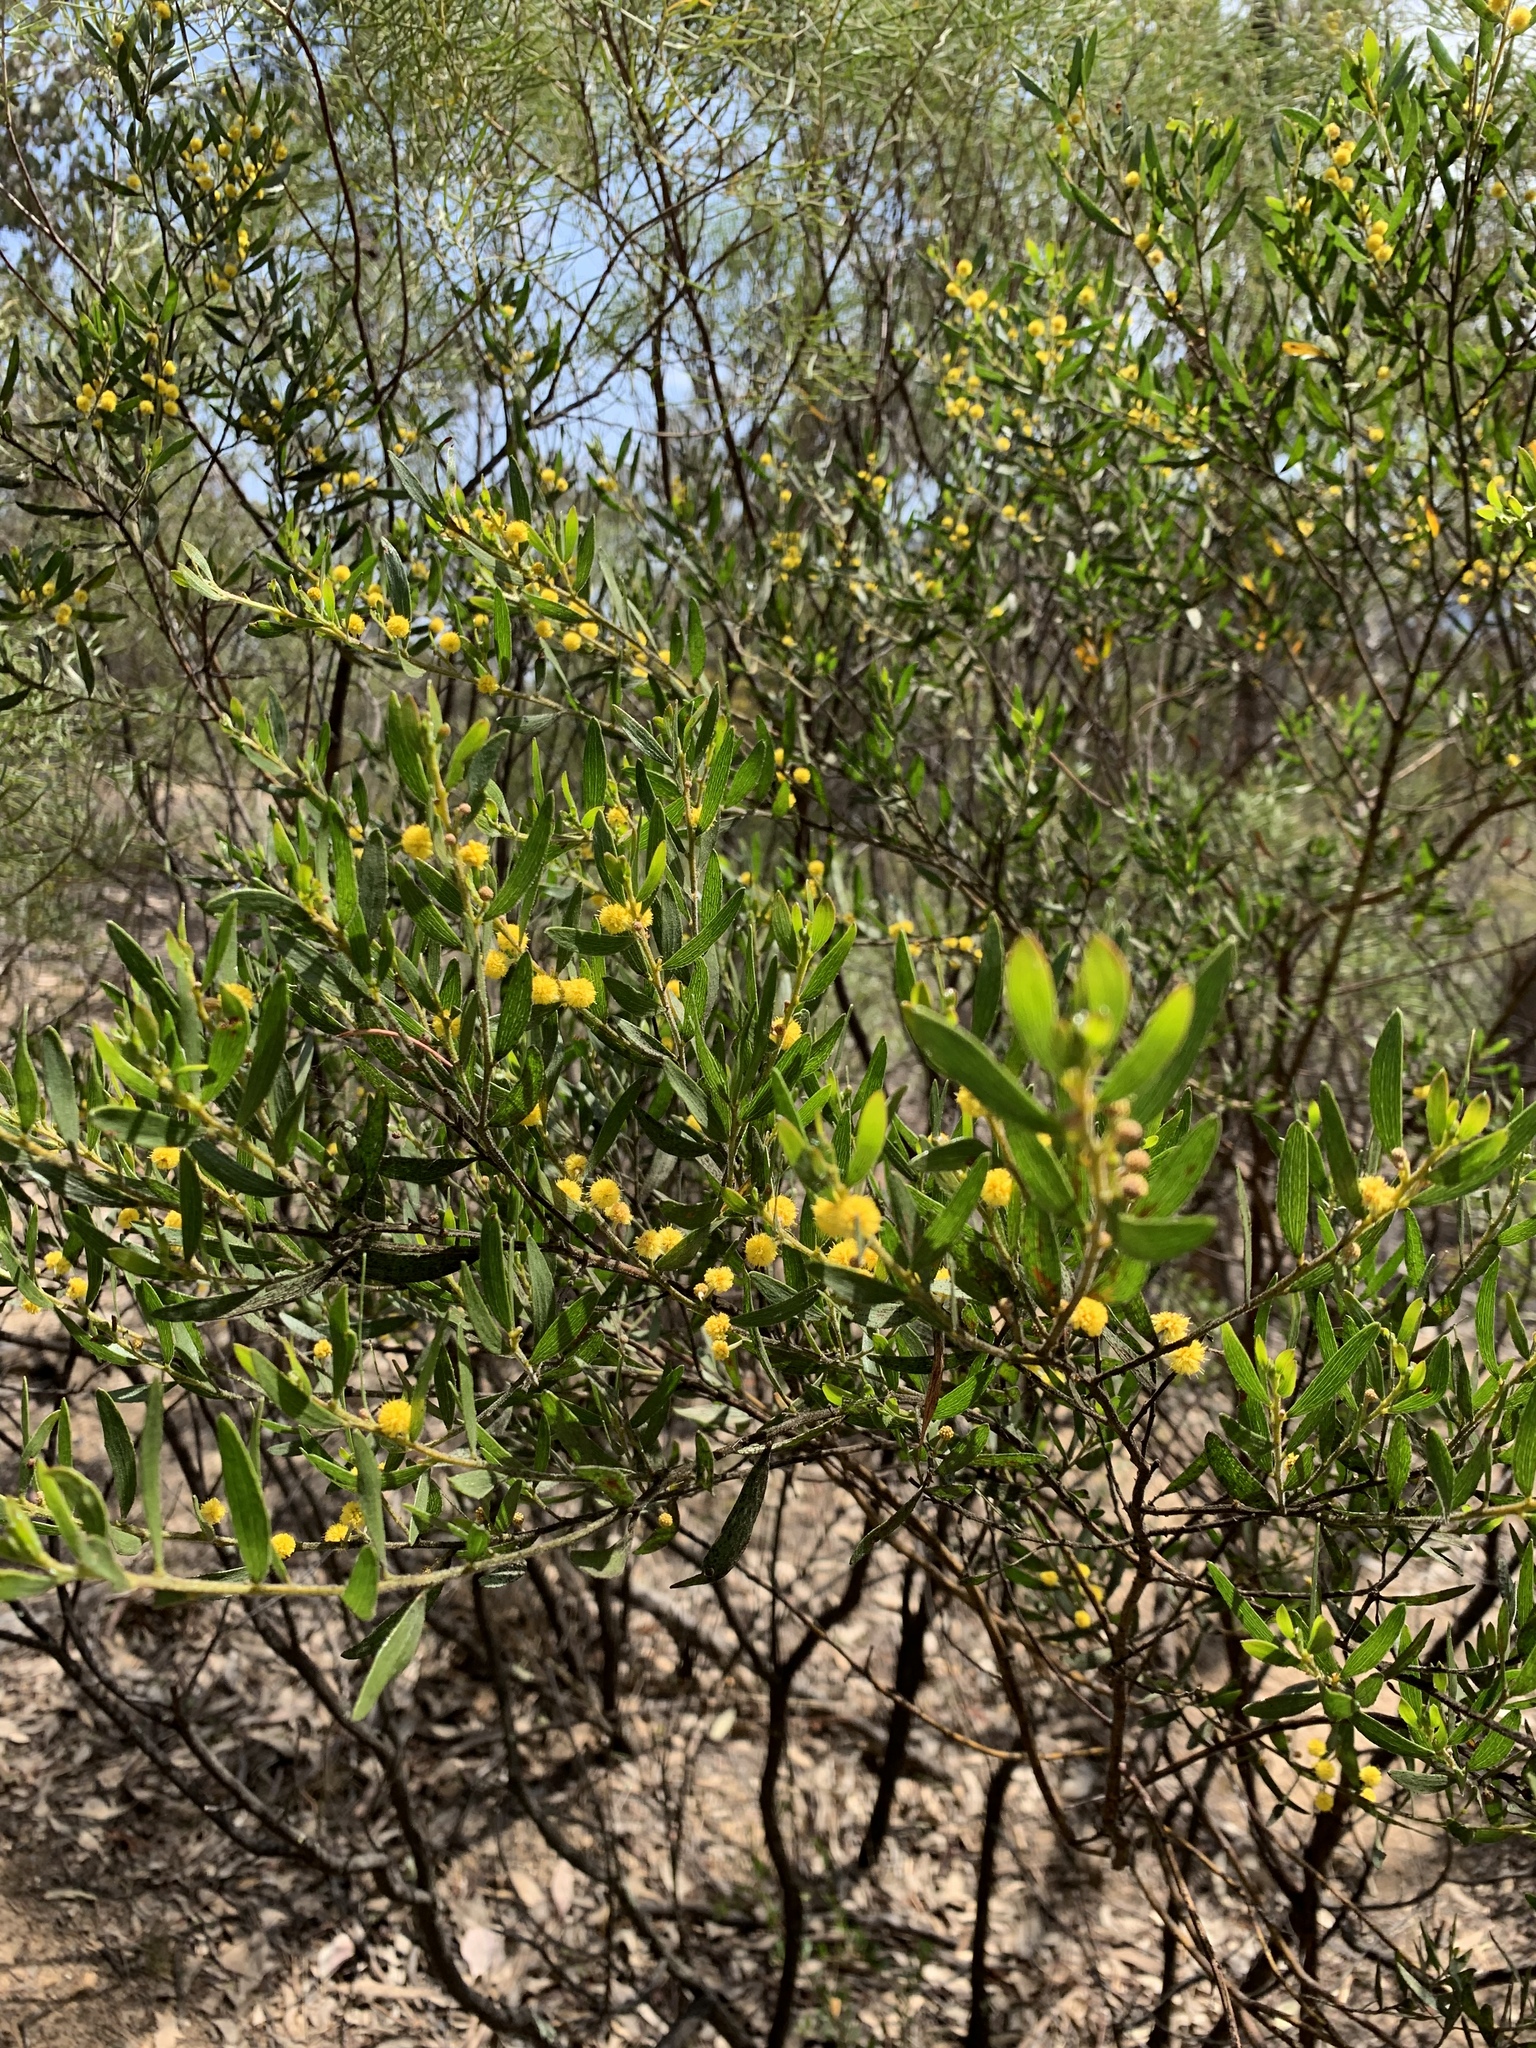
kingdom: Plantae
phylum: Tracheophyta
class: Magnoliopsida
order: Fabales
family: Fabaceae
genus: Acacia
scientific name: Acacia ixiophylla
